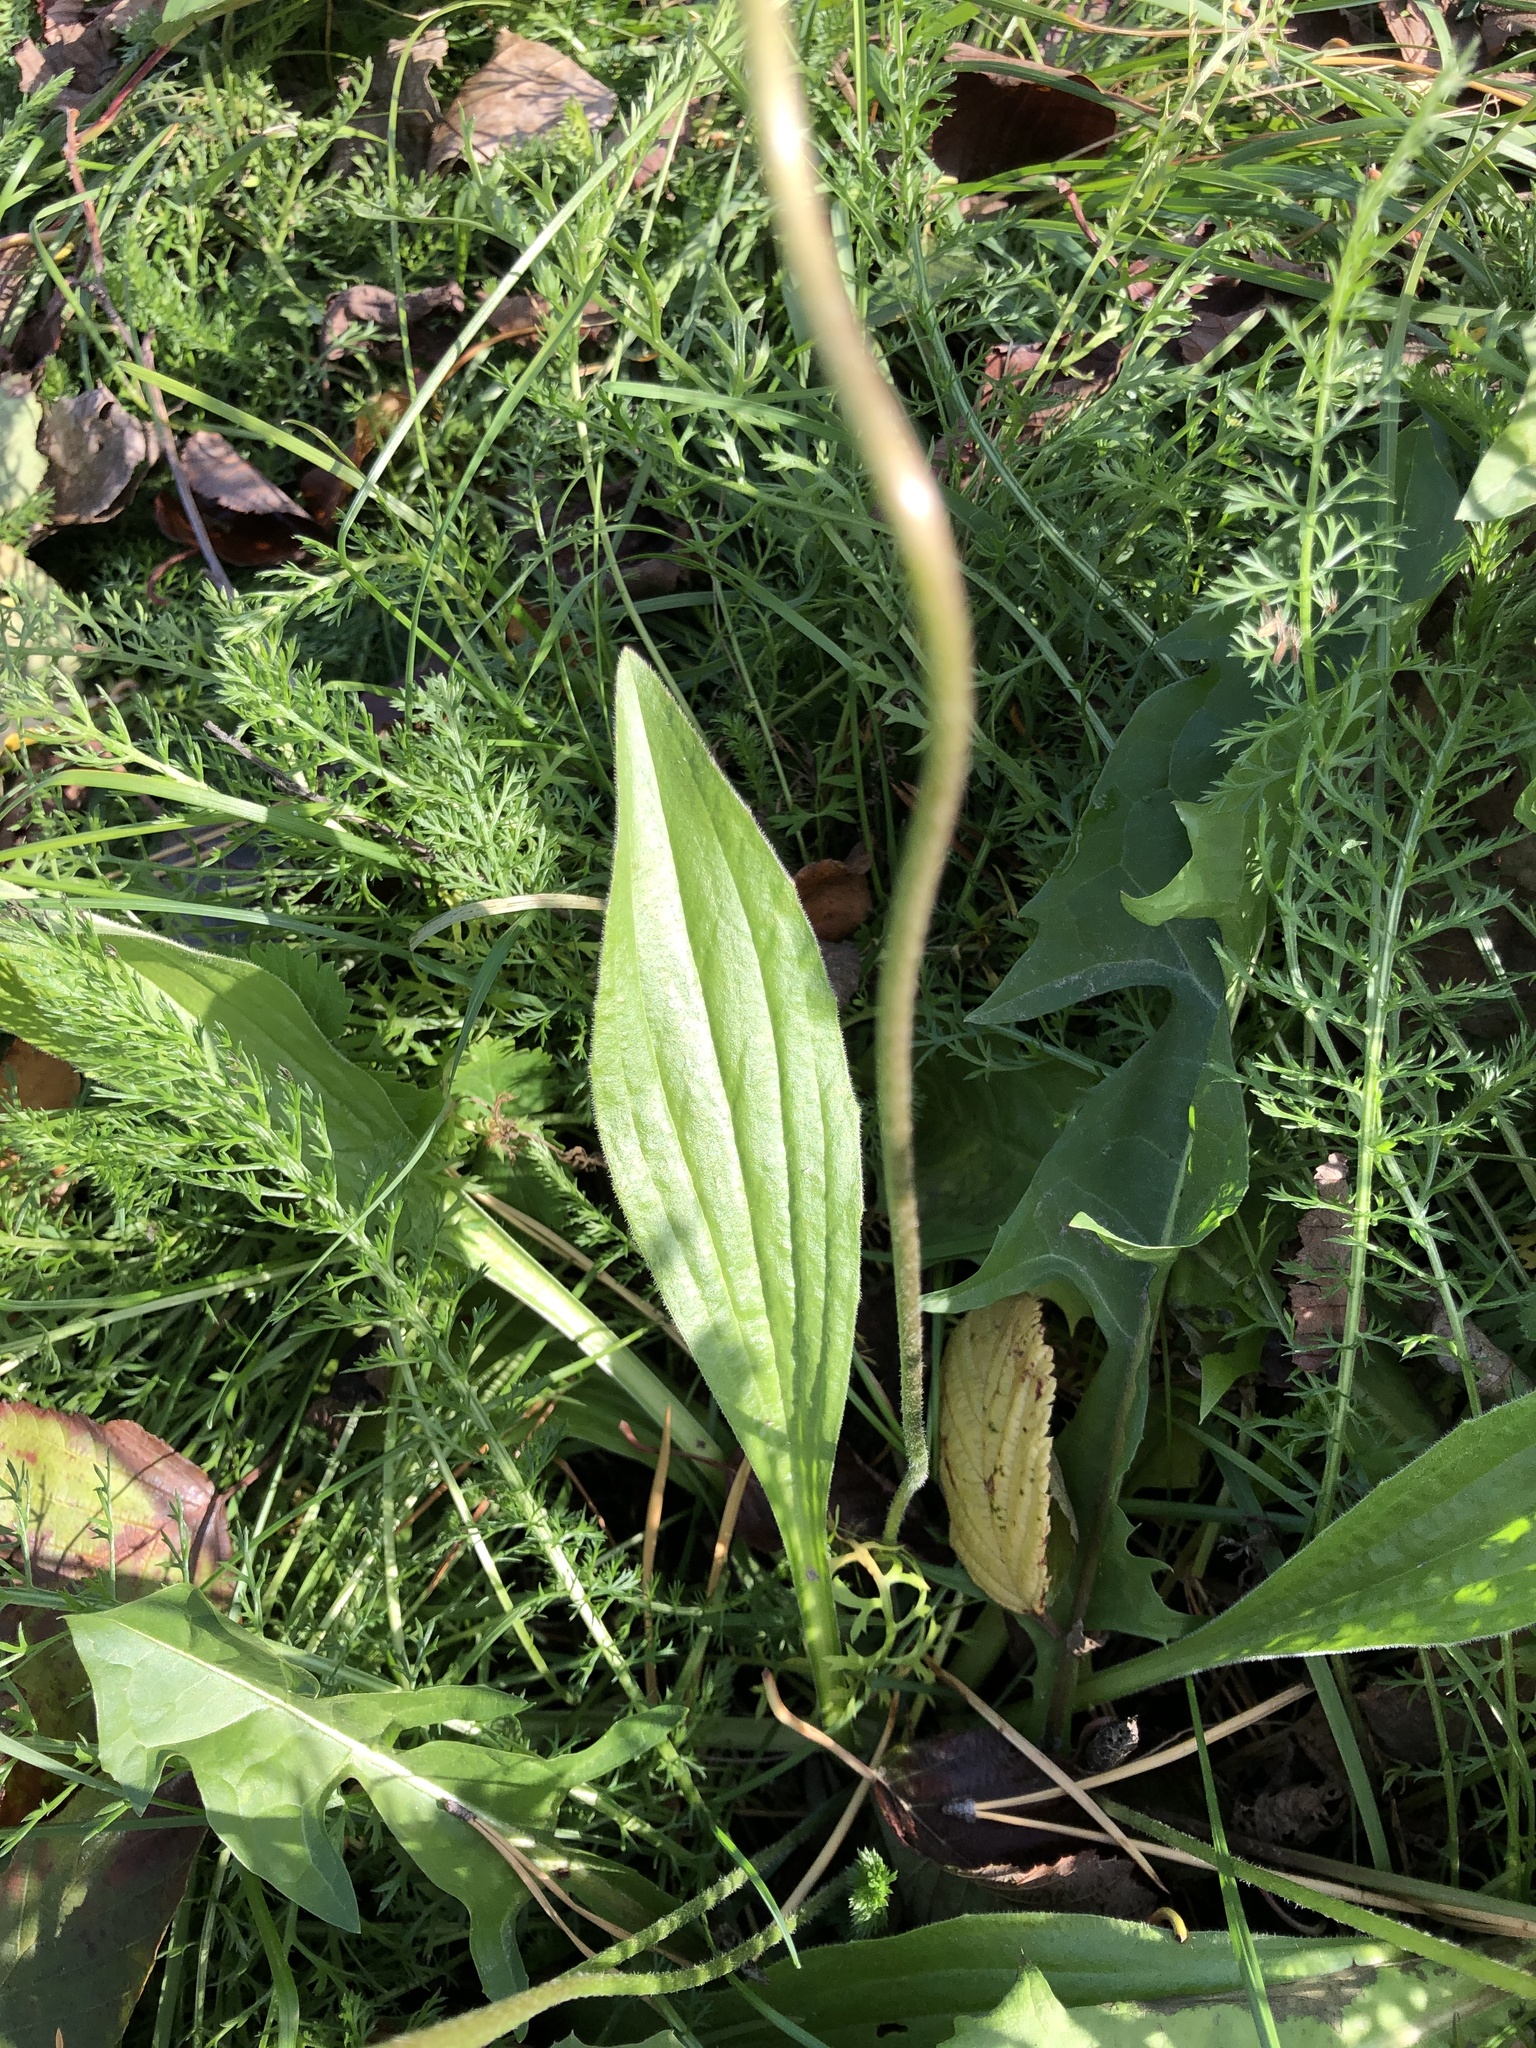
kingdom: Plantae
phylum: Tracheophyta
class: Magnoliopsida
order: Lamiales
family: Plantaginaceae
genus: Plantago
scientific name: Plantago media
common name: Hoary plantain
